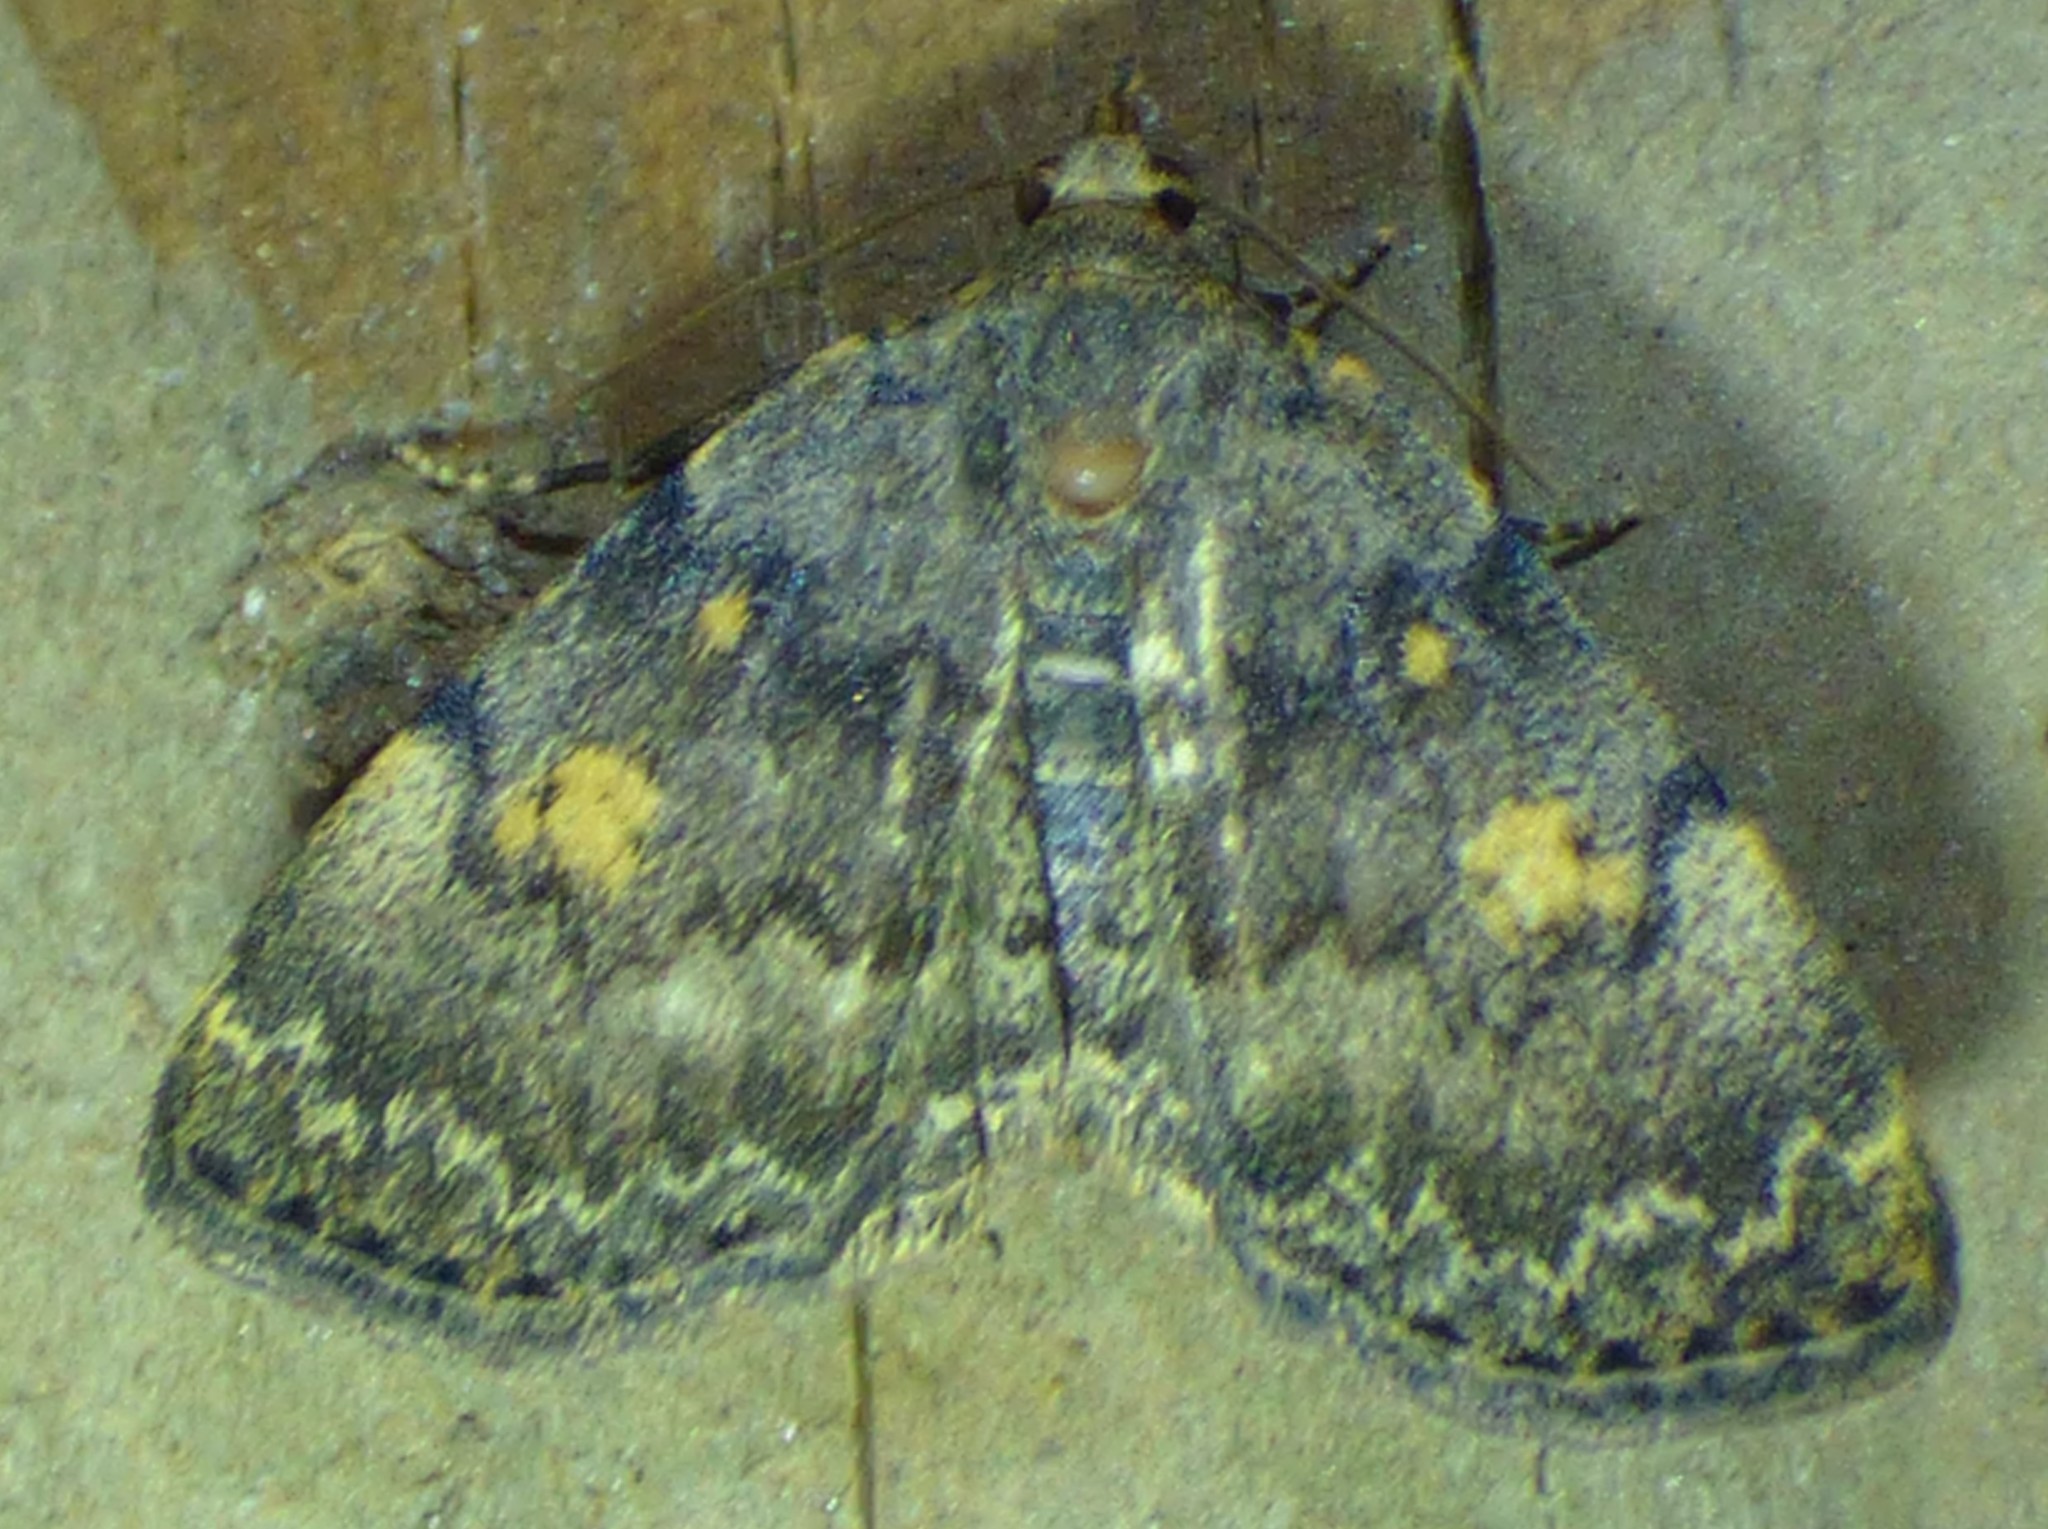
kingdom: Animalia
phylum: Arthropoda
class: Insecta
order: Lepidoptera
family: Erebidae
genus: Idia
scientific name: Idia aemula
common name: Common idia moth
